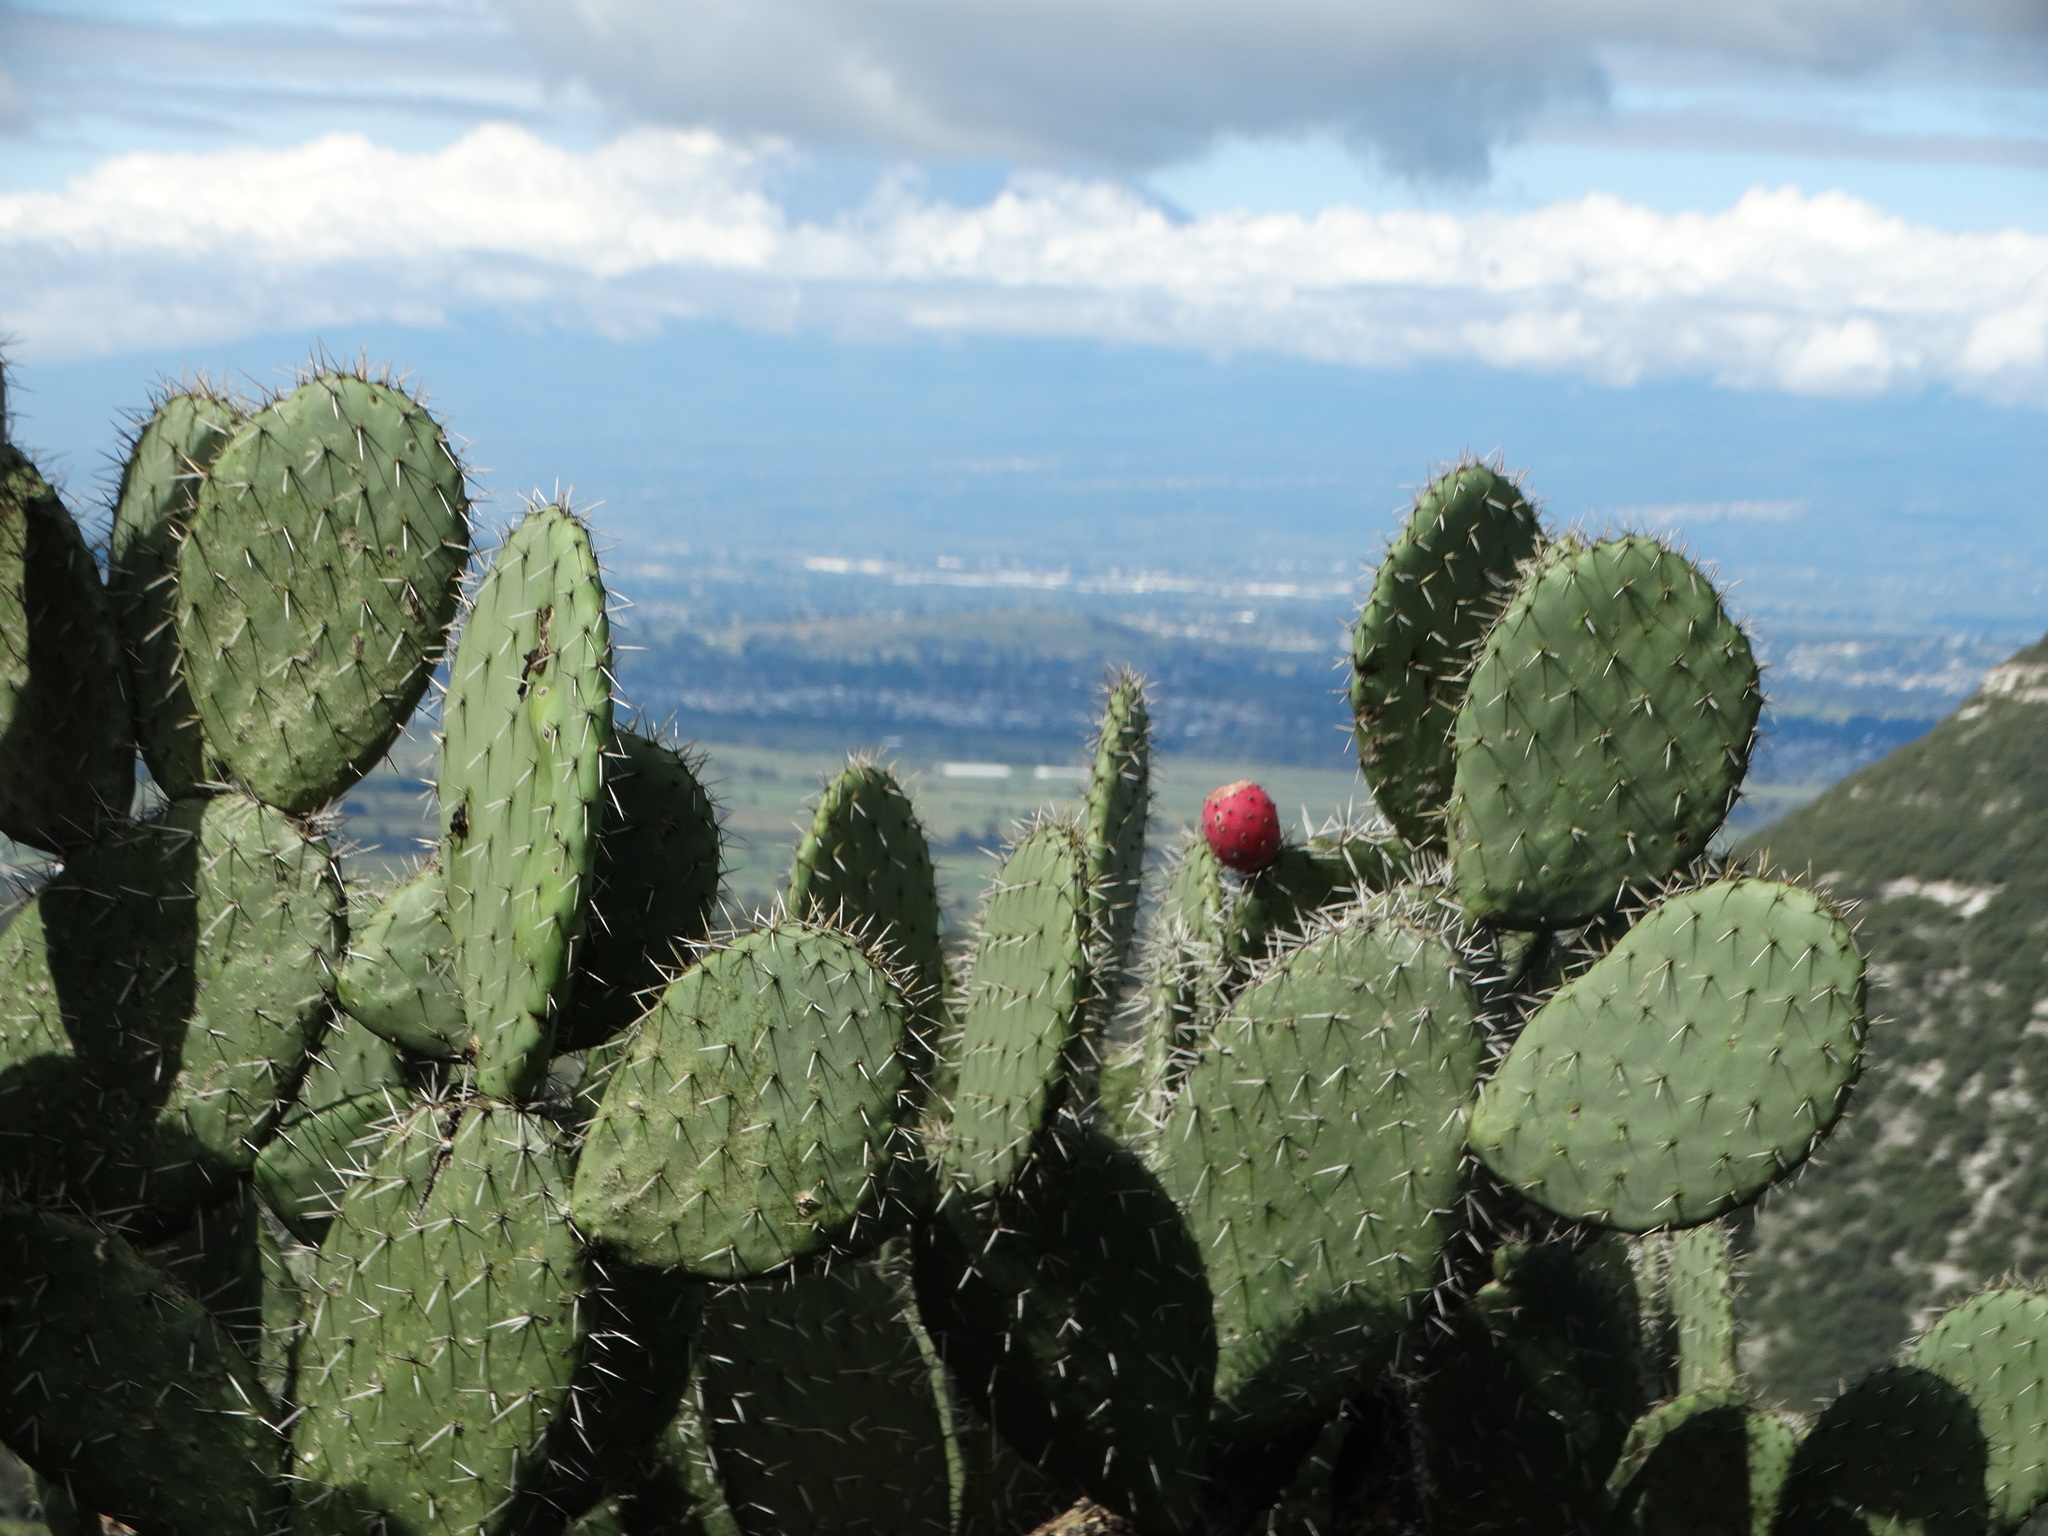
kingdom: Plantae
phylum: Tracheophyta
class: Magnoliopsida
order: Caryophyllales
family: Cactaceae
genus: Opuntia
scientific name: Opuntia streptacantha
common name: Gracemere-pear
